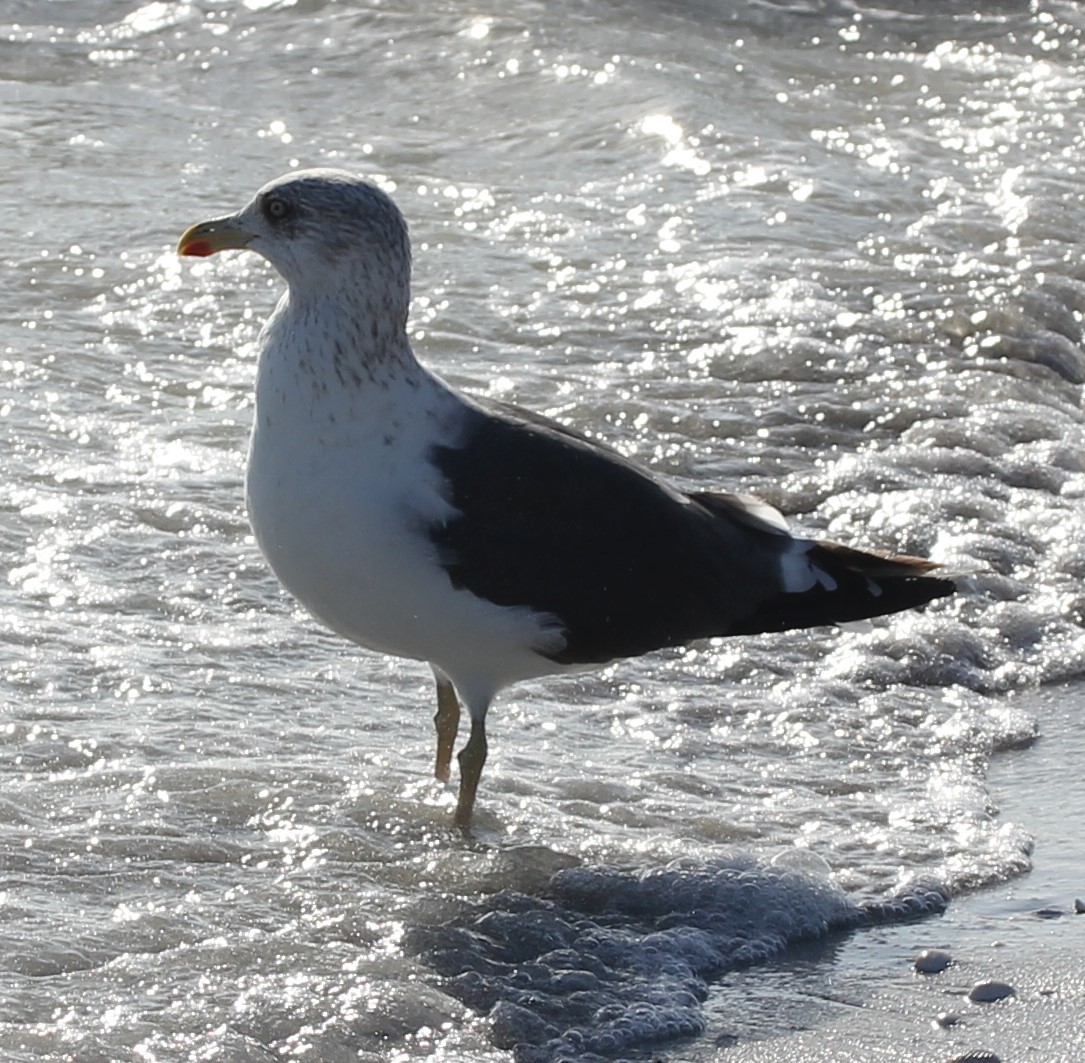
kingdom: Animalia
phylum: Chordata
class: Aves
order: Charadriiformes
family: Laridae
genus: Larus
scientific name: Larus fuscus
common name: Lesser black-backed gull
